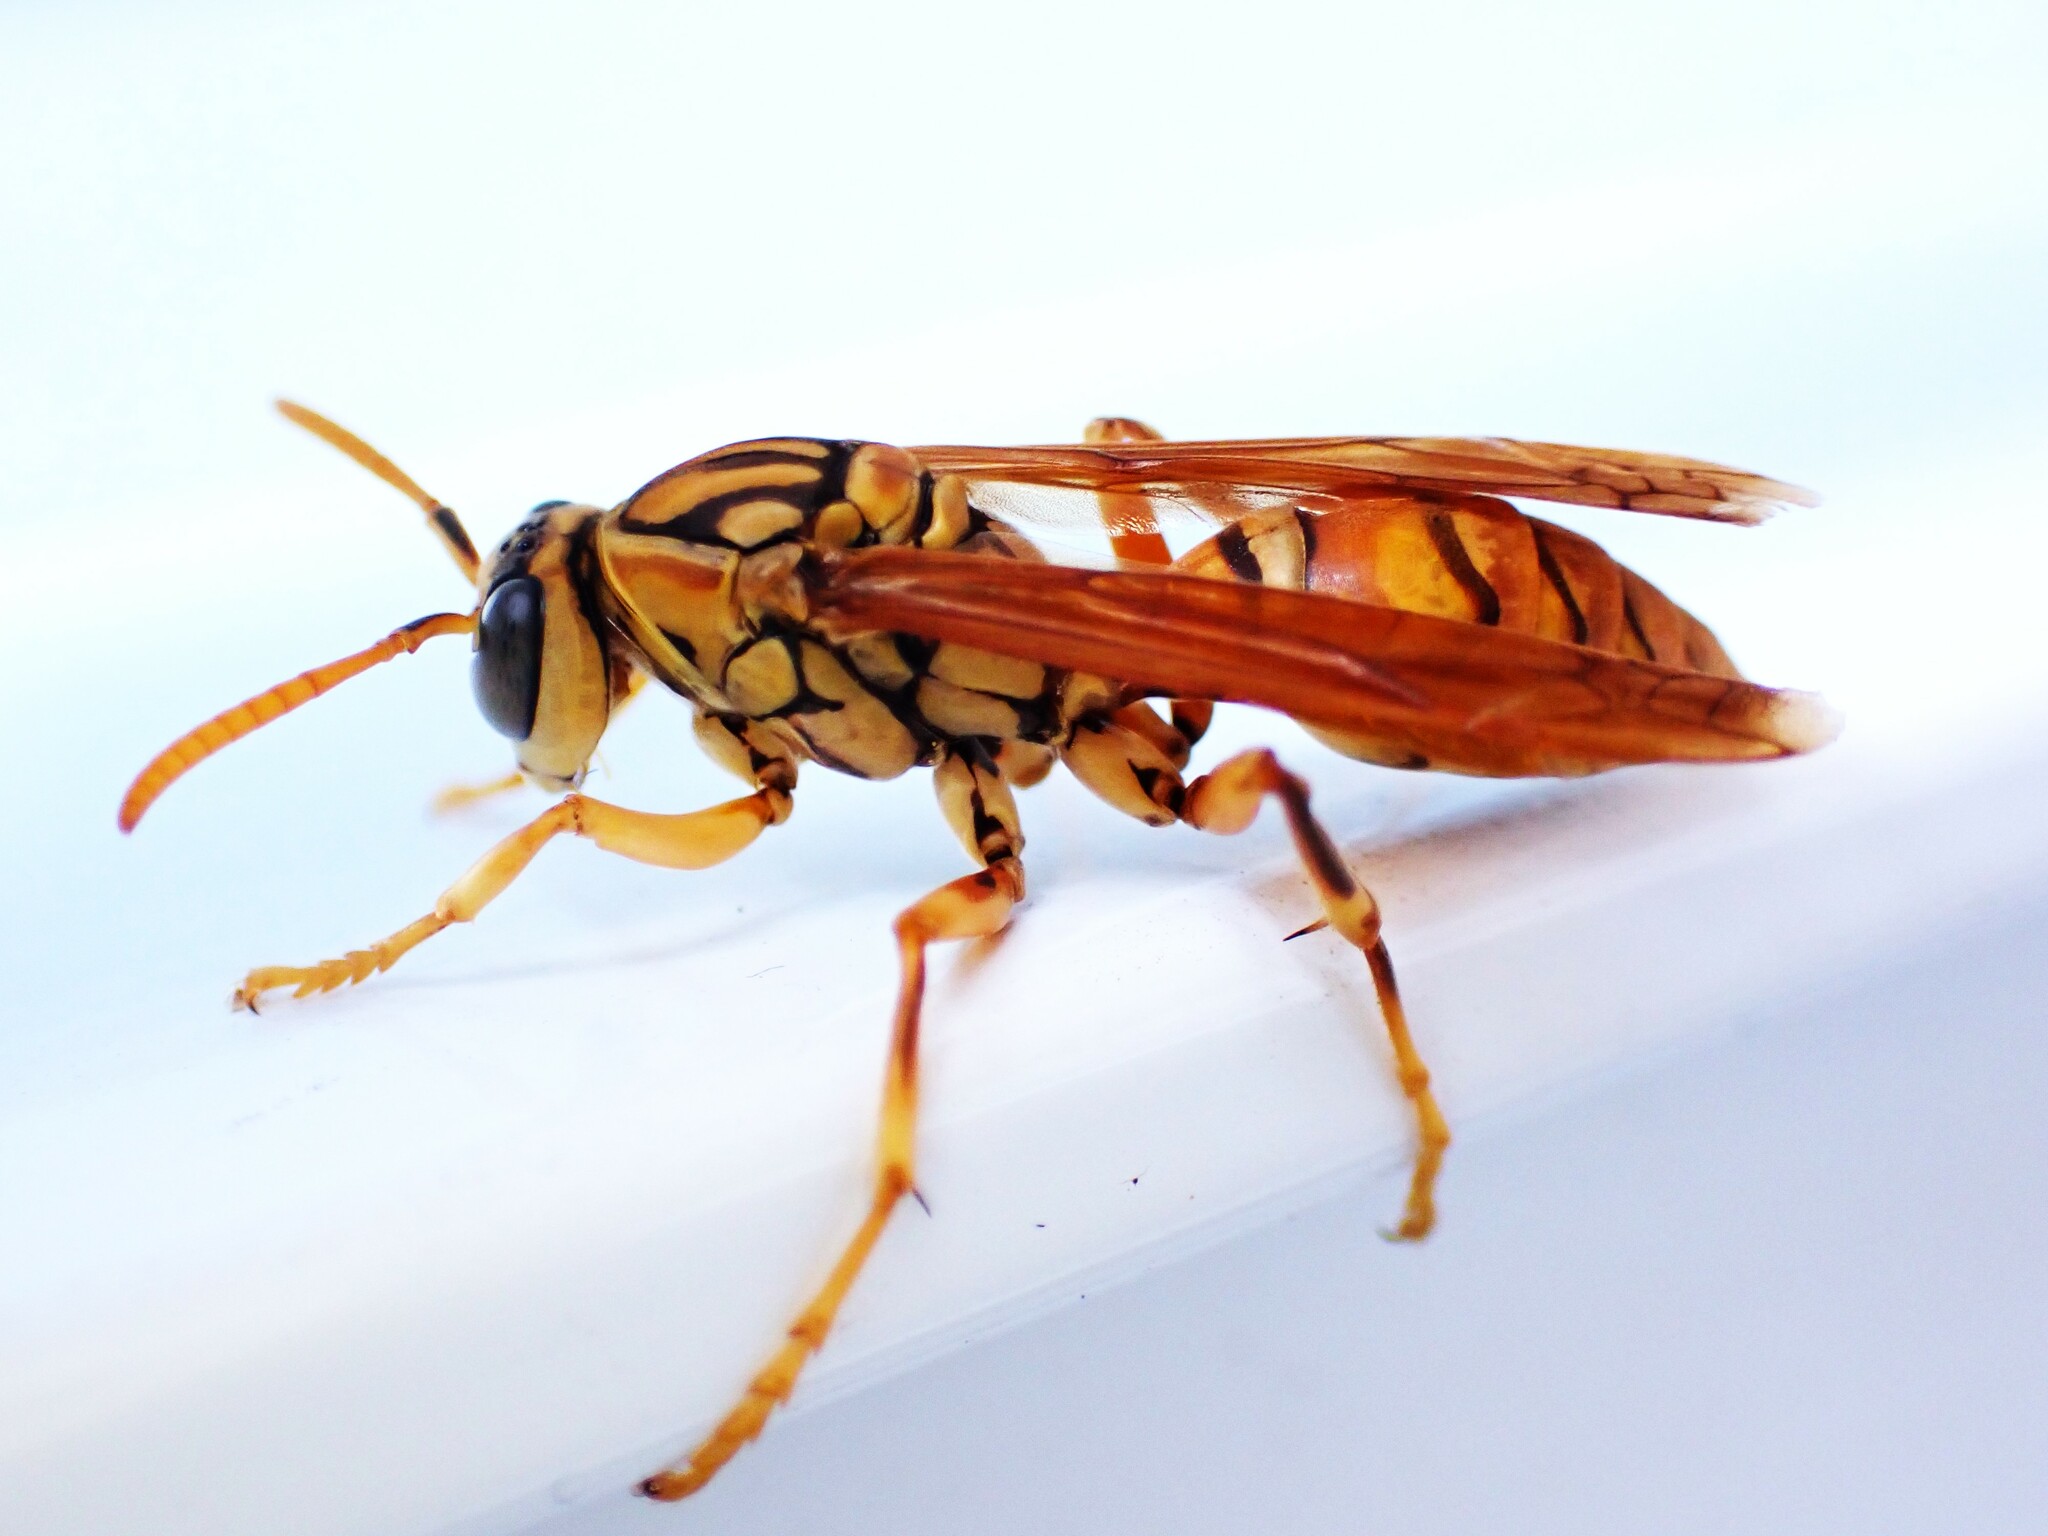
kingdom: Animalia
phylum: Arthropoda
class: Insecta
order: Hymenoptera
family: Eumenidae
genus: Polistes
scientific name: Polistes olivaceus
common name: Paper wasp
